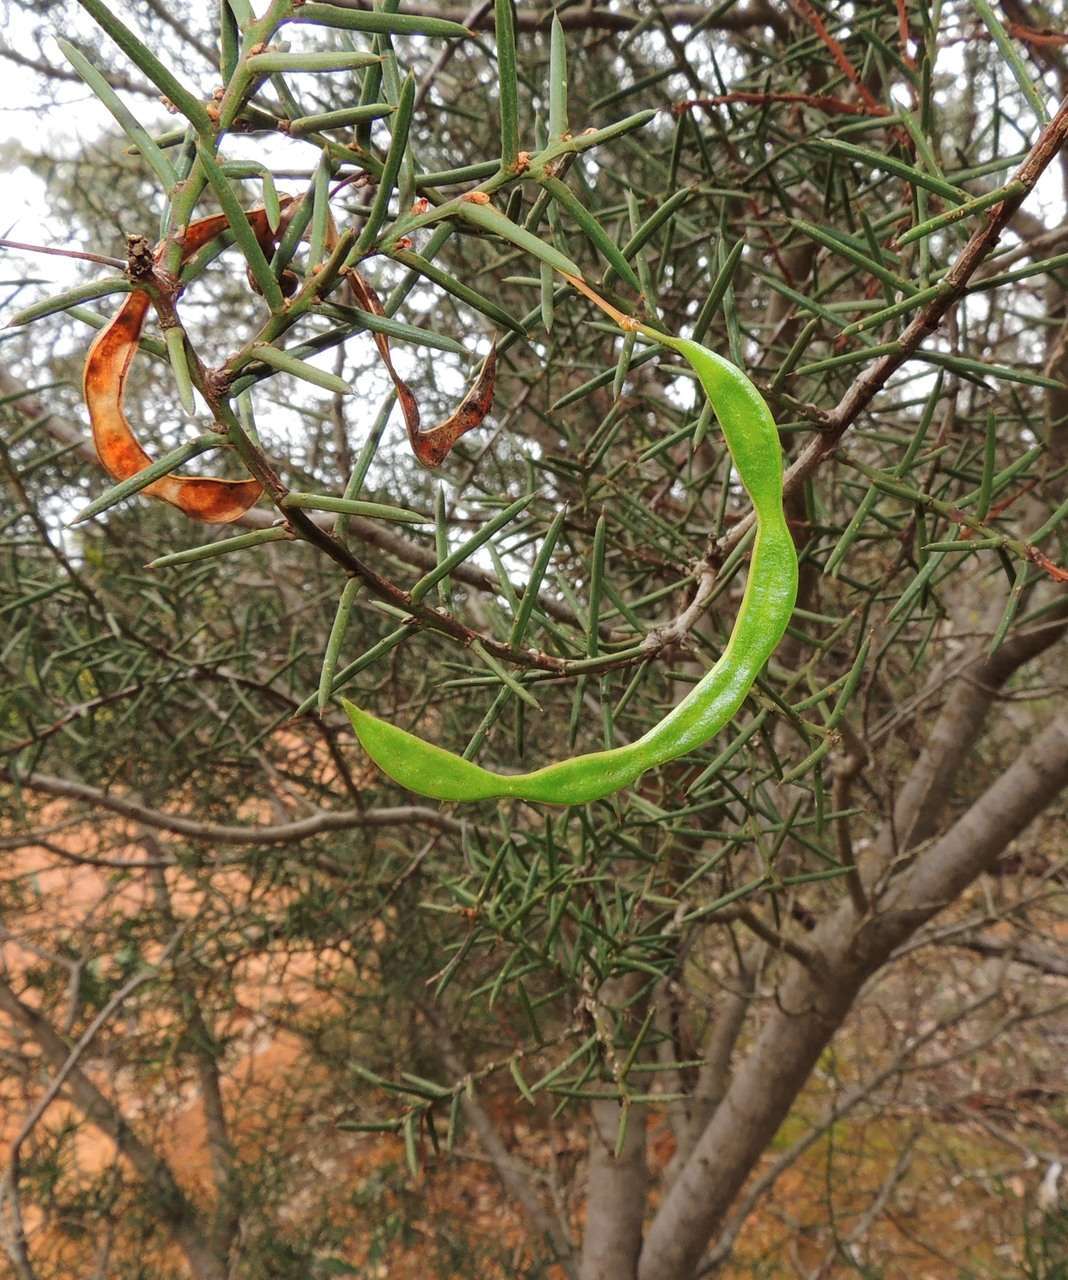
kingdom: Plantae
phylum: Tracheophyta
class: Magnoliopsida
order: Fabales
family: Fabaceae
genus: Acacia
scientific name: Acacia genistifolia
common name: Early wattle
